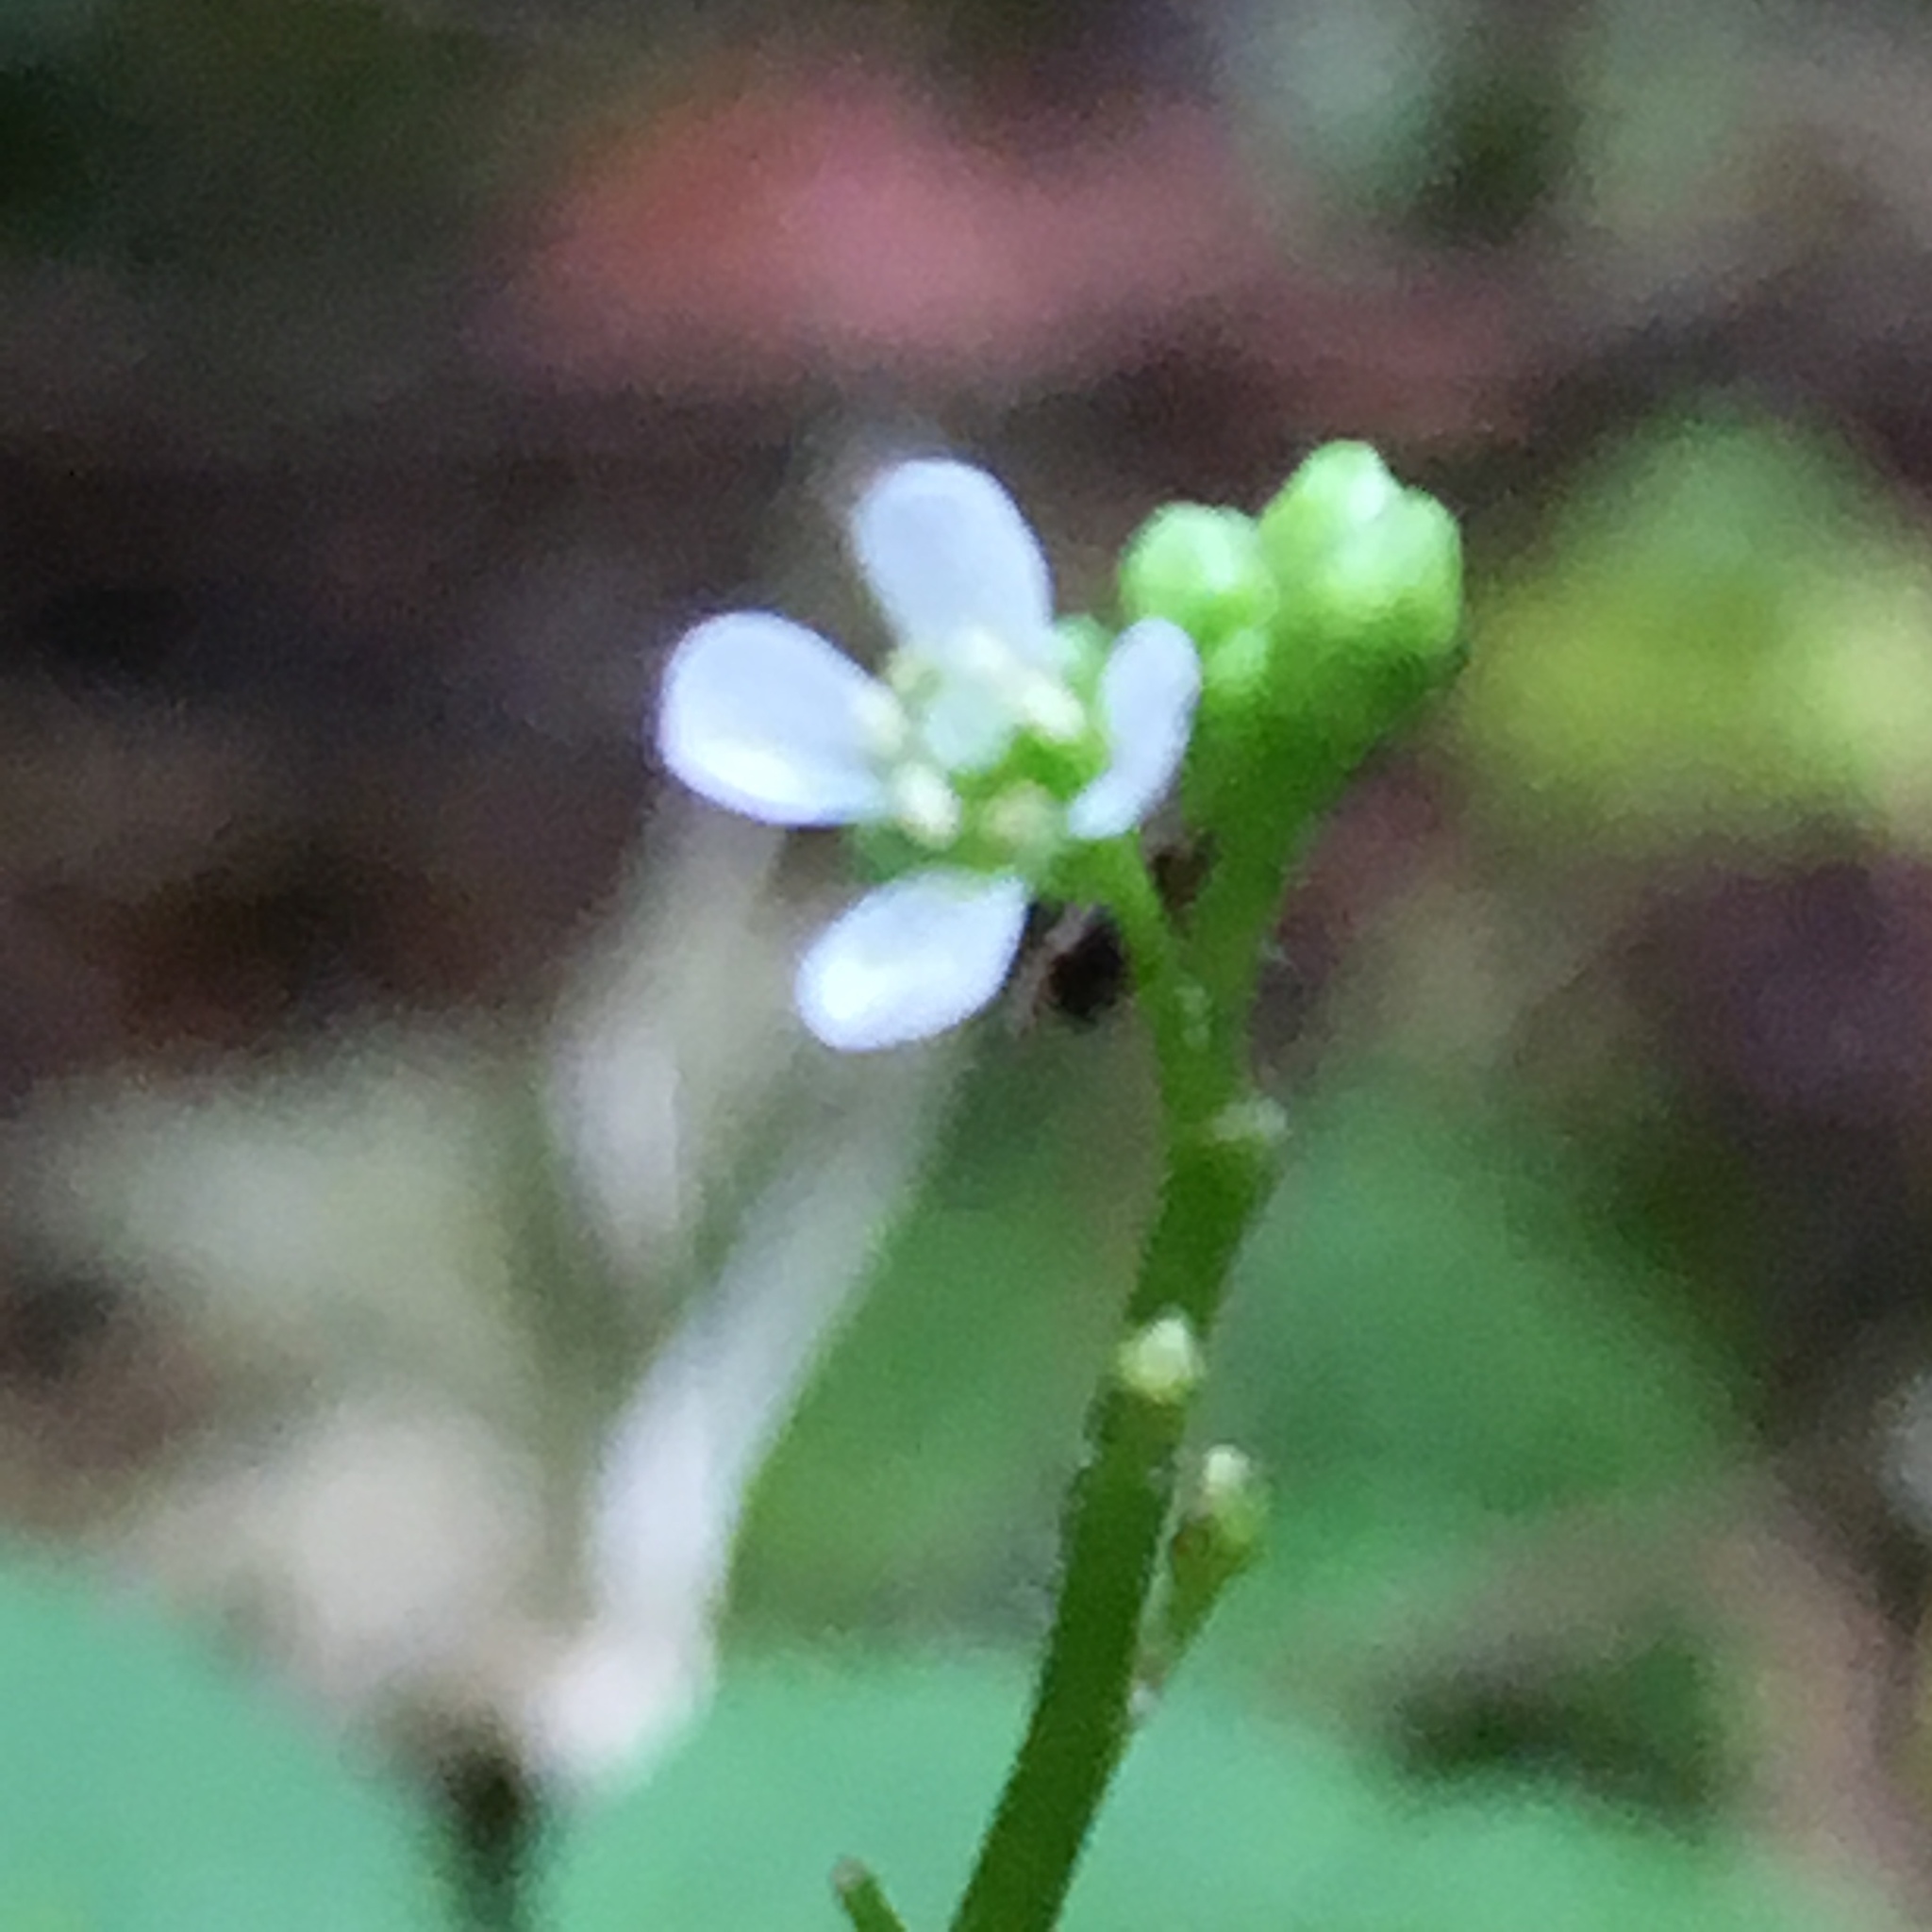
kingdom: Plantae
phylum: Tracheophyta
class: Magnoliopsida
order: Brassicales
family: Brassicaceae
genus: Cardamine
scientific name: Cardamine flexuosa
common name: Woodland bittercress
